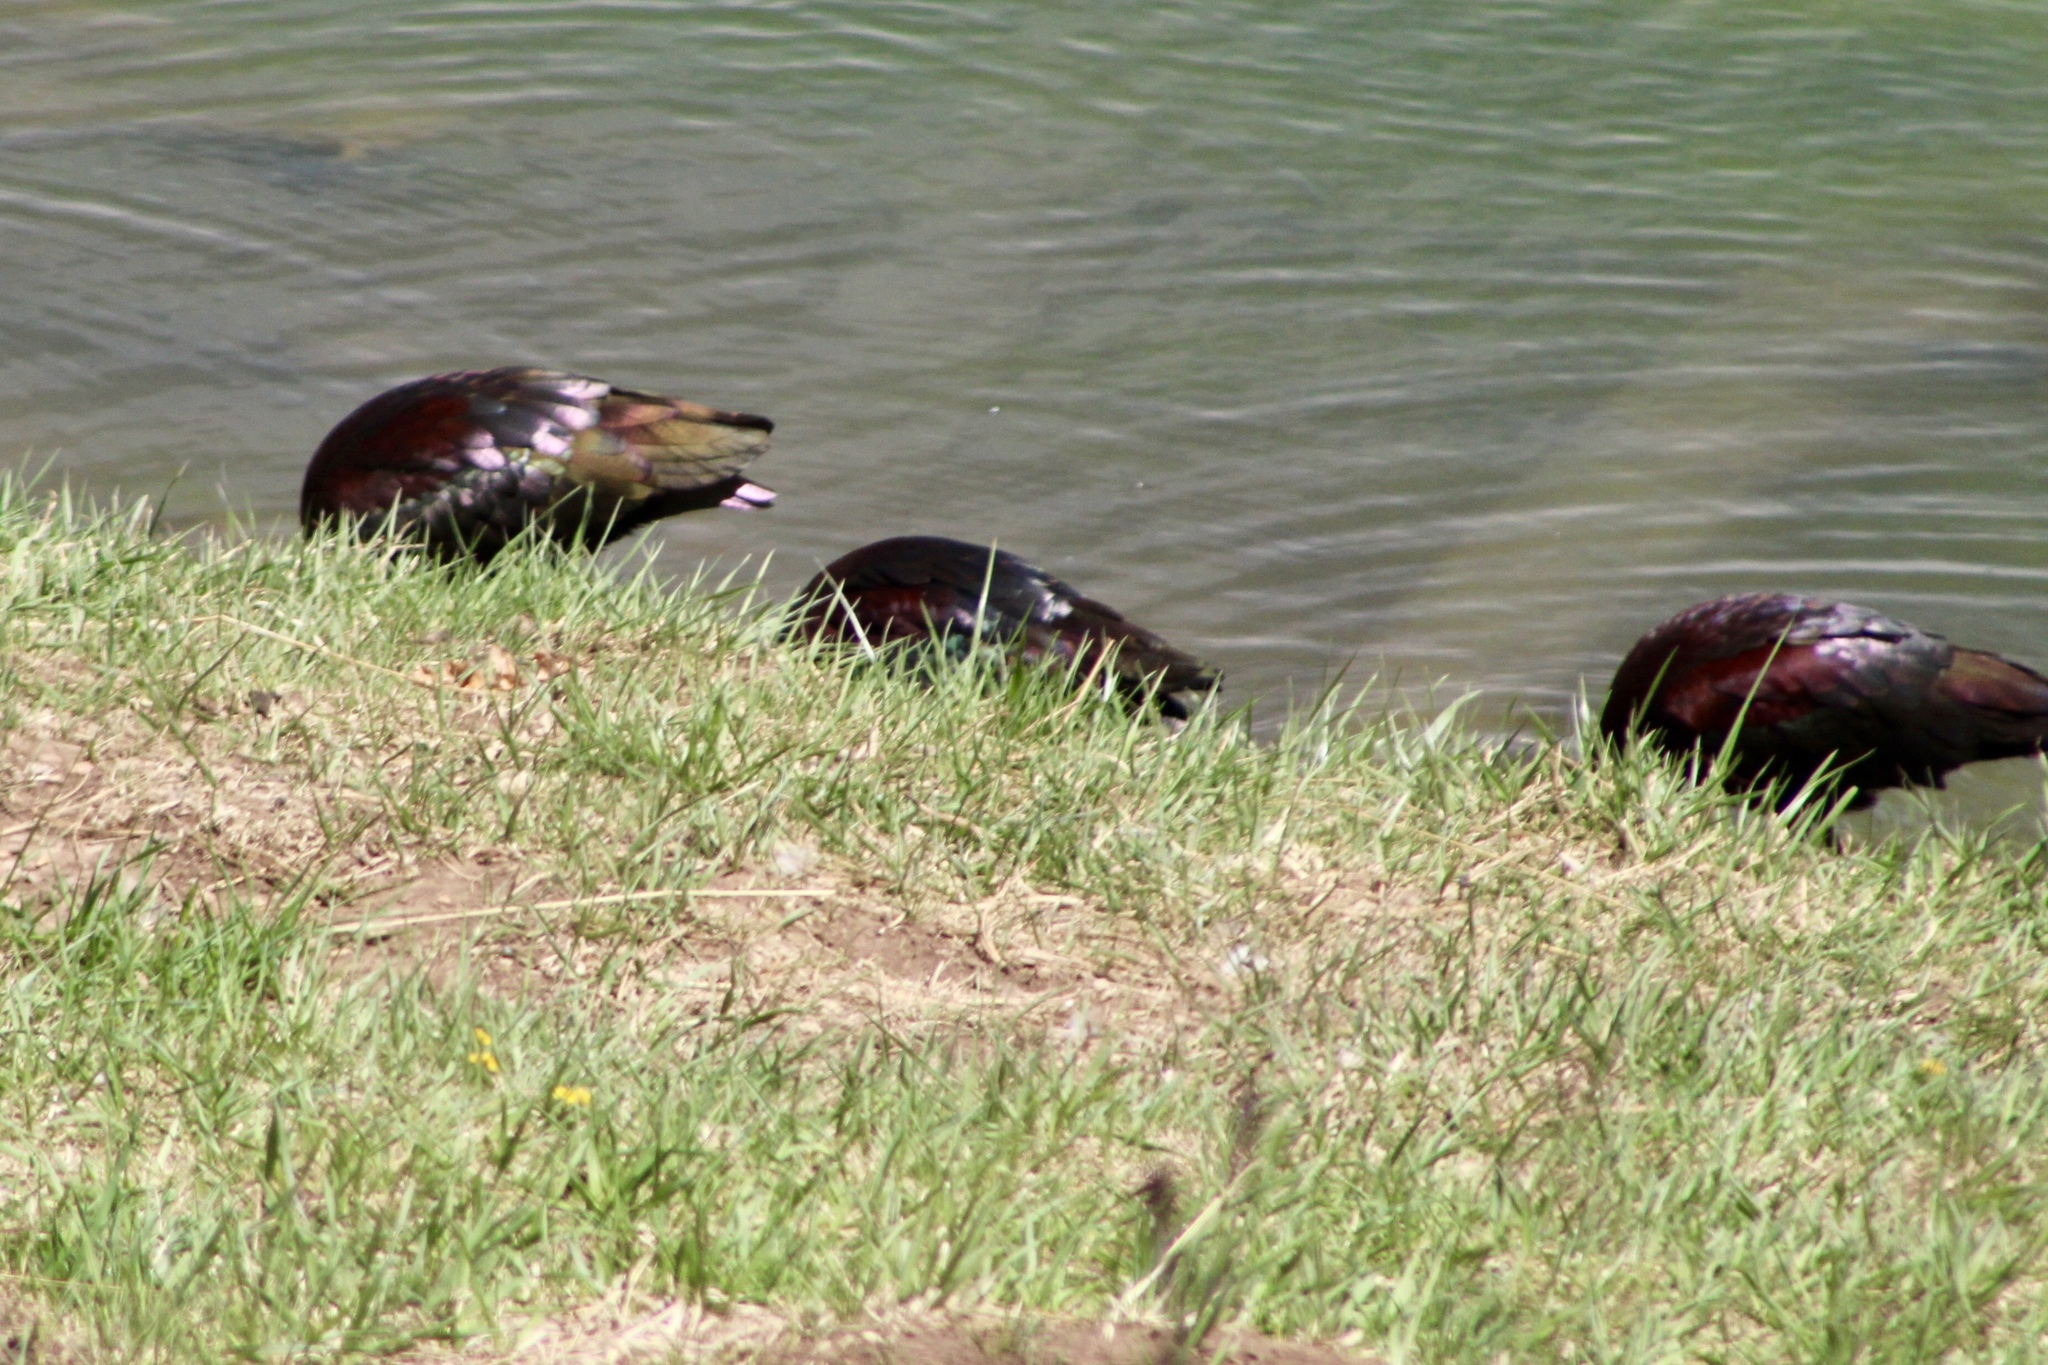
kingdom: Animalia
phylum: Chordata
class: Aves
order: Pelecaniformes
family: Threskiornithidae
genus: Plegadis
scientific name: Plegadis chihi
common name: White-faced ibis
